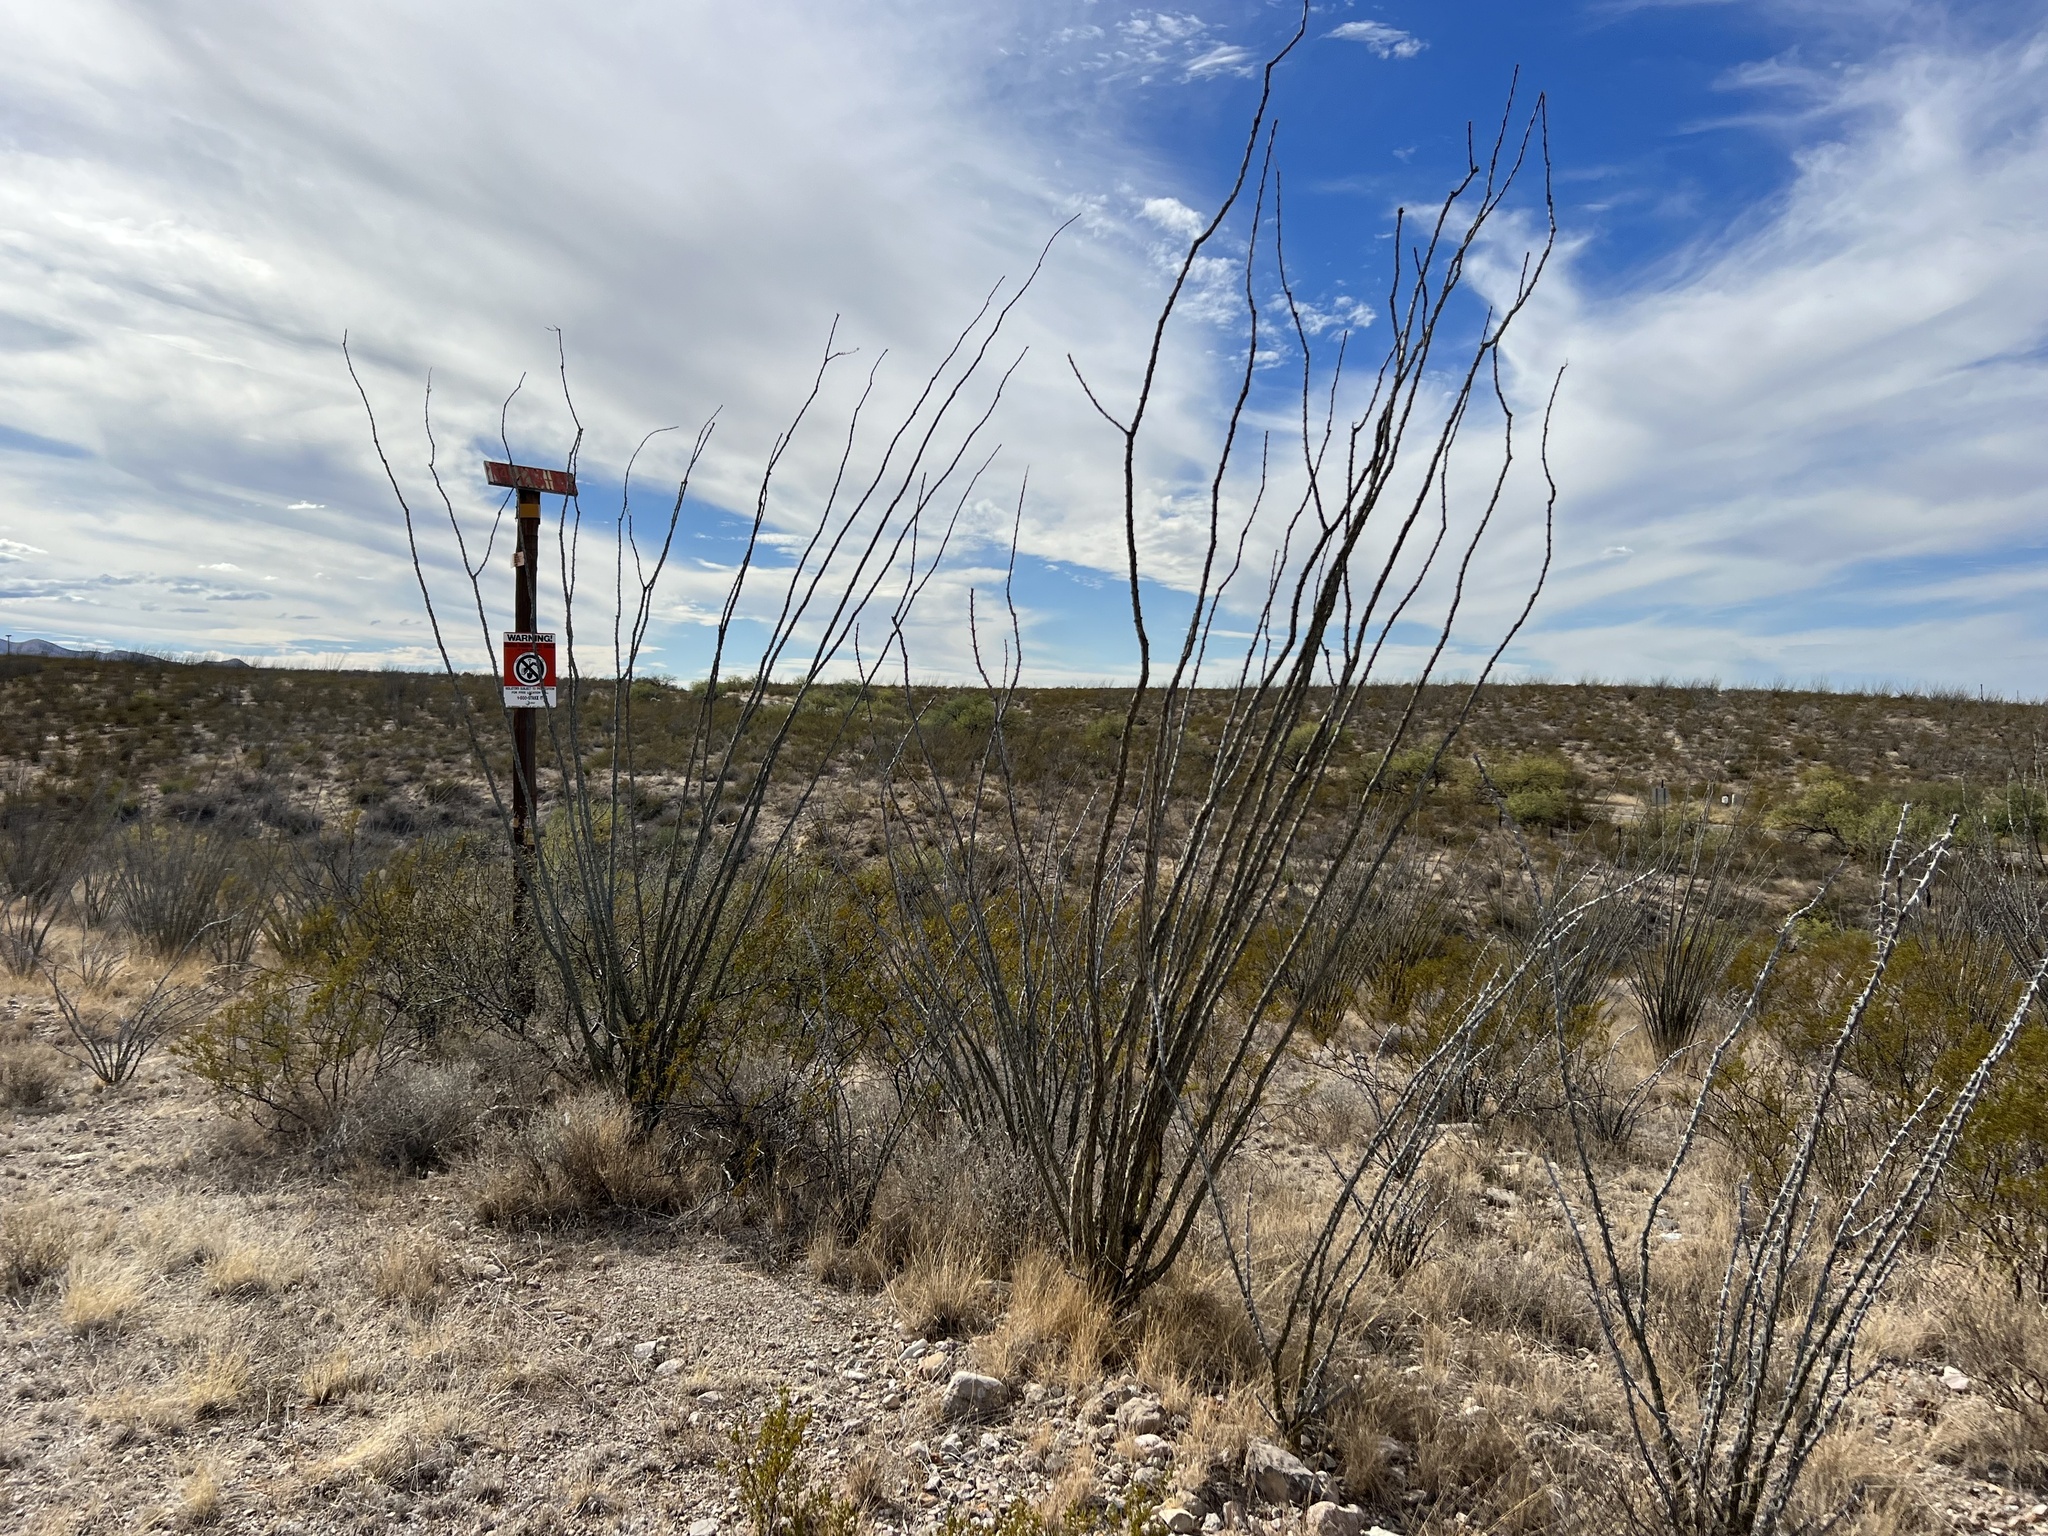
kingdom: Plantae
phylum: Tracheophyta
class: Magnoliopsida
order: Ericales
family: Fouquieriaceae
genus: Fouquieria
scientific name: Fouquieria splendens
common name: Vine-cactus
